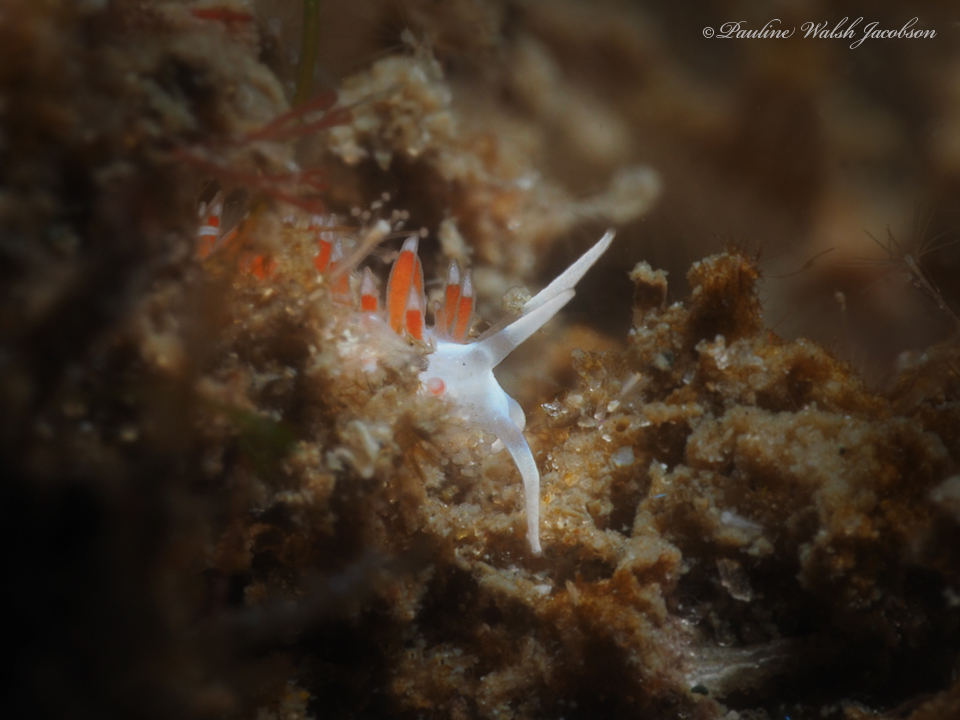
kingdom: Animalia
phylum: Mollusca
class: Gastropoda
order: Nudibranchia
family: Flabellinidae
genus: Flabellina
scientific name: Flabellina dushia
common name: Dushia flabellina
